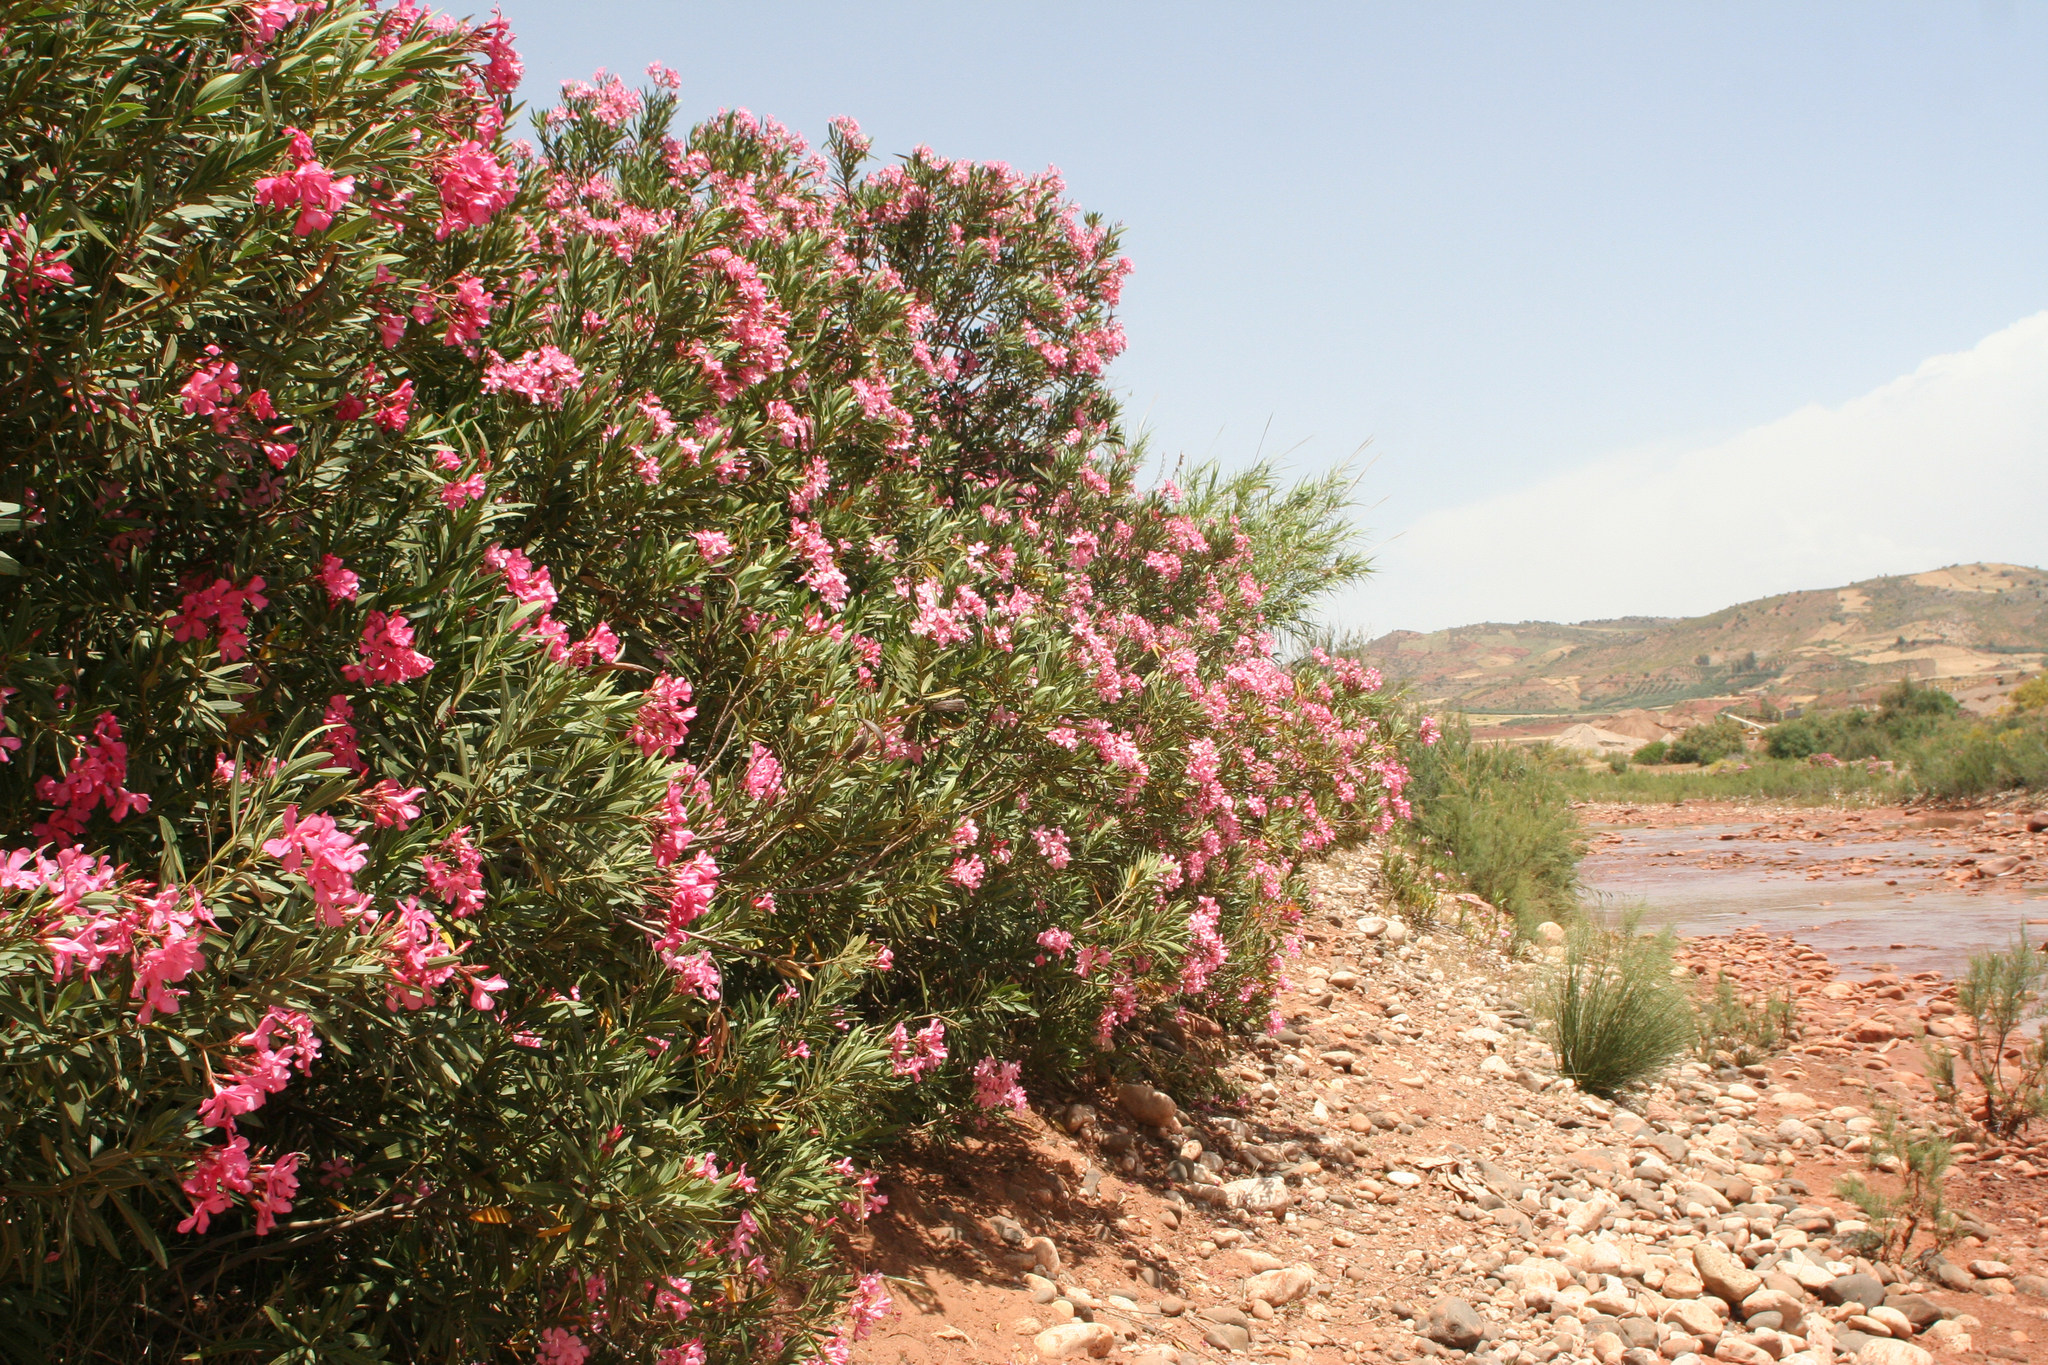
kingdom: Plantae
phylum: Tracheophyta
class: Magnoliopsida
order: Gentianales
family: Apocynaceae
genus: Nerium
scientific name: Nerium oleander
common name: Oleander
